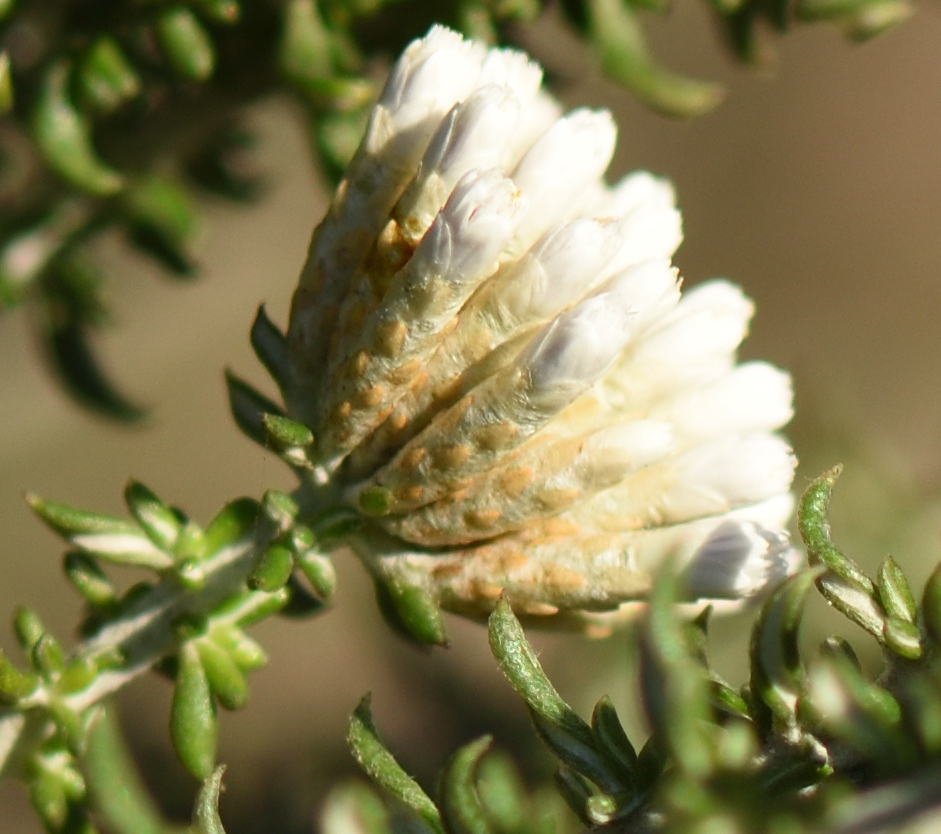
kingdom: Plantae
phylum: Tracheophyta
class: Magnoliopsida
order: Asterales
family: Asteraceae
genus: Metalasia
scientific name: Metalasia muricata
